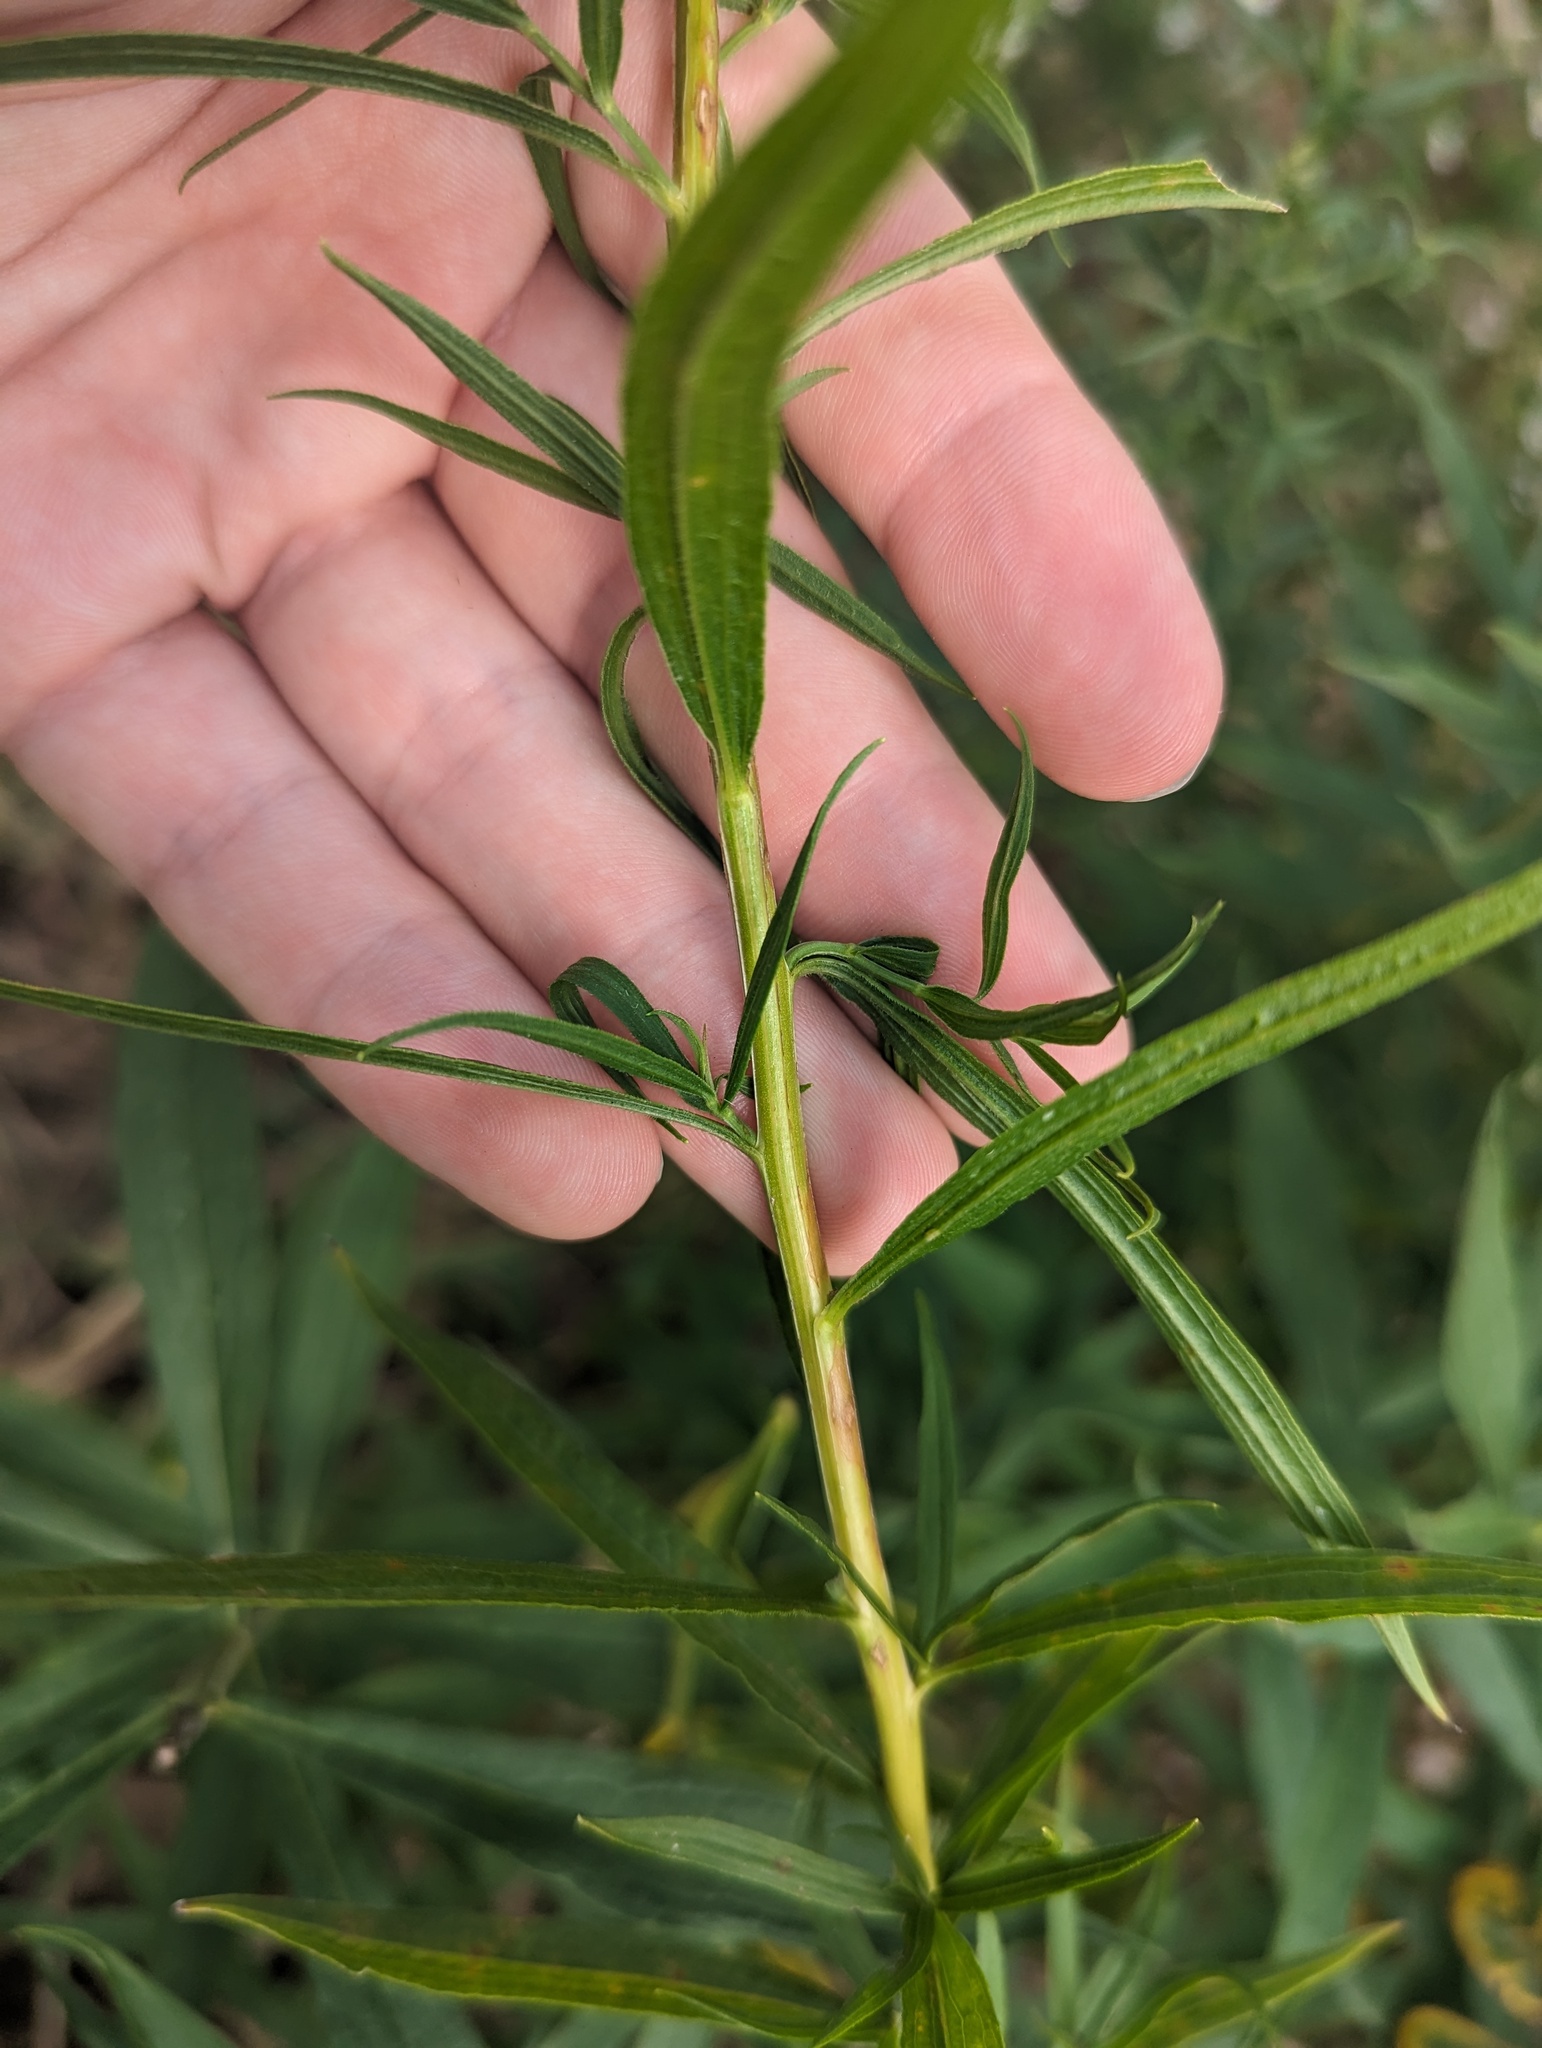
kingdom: Plantae
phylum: Tracheophyta
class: Magnoliopsida
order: Asterales
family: Asteraceae
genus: Euthamia
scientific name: Euthamia graminifolia
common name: Common goldentop
